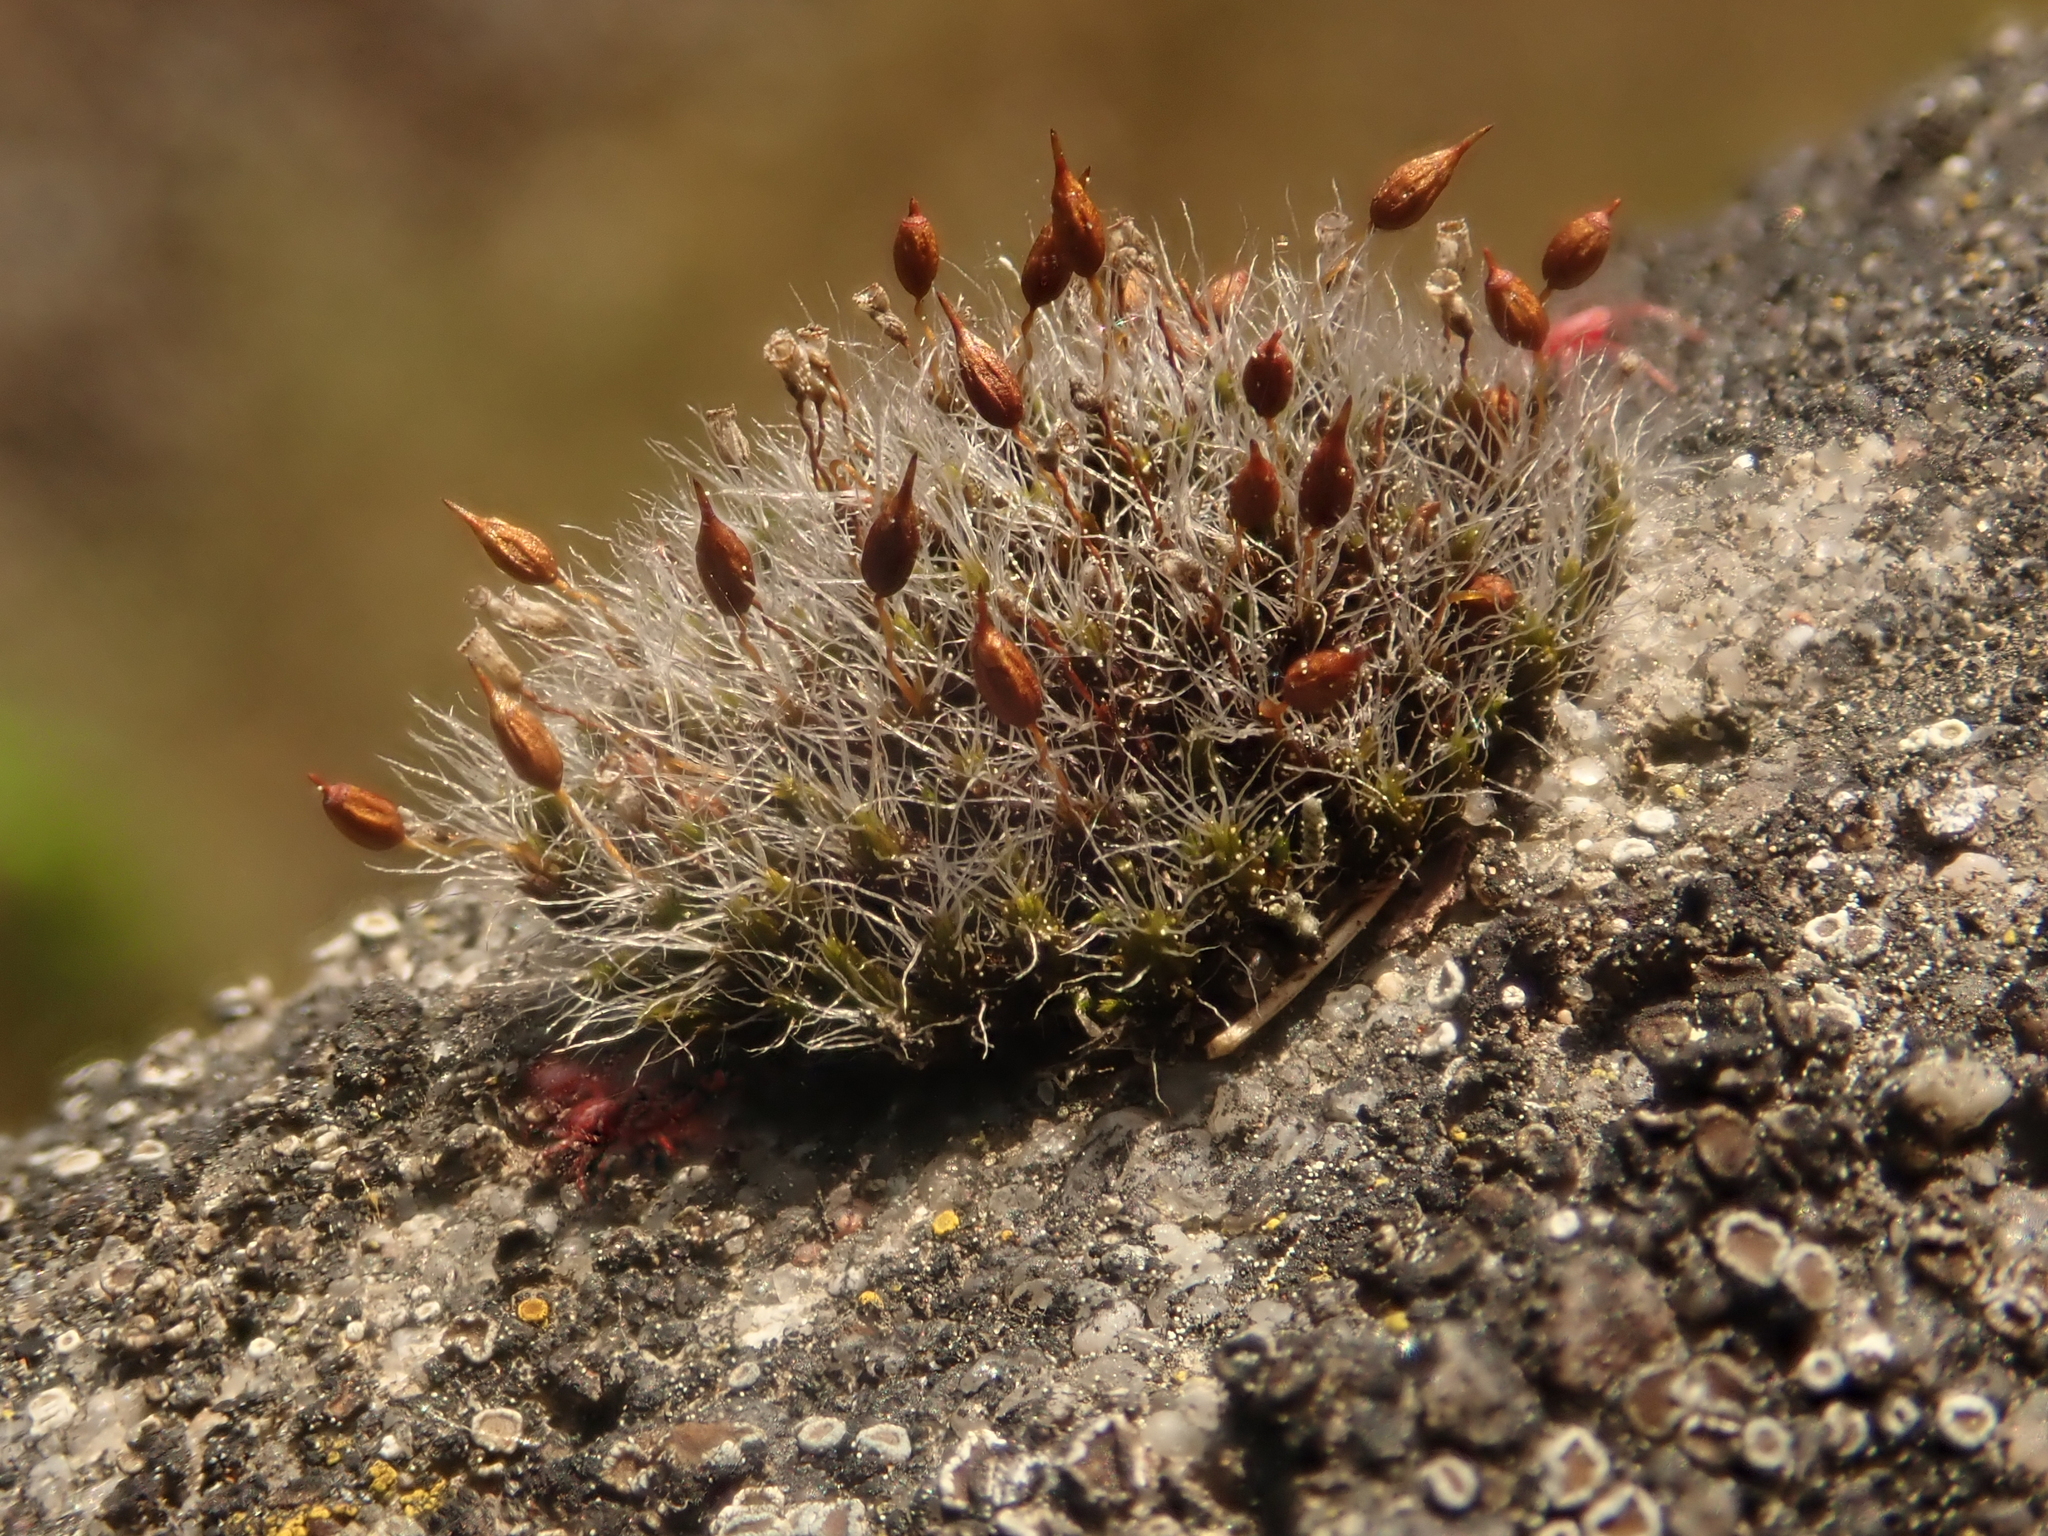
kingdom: Plantae
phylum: Bryophyta
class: Bryopsida
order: Grimmiales
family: Grimmiaceae
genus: Grimmia
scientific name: Grimmia pulvinata
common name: Grey-cushioned grimmia
